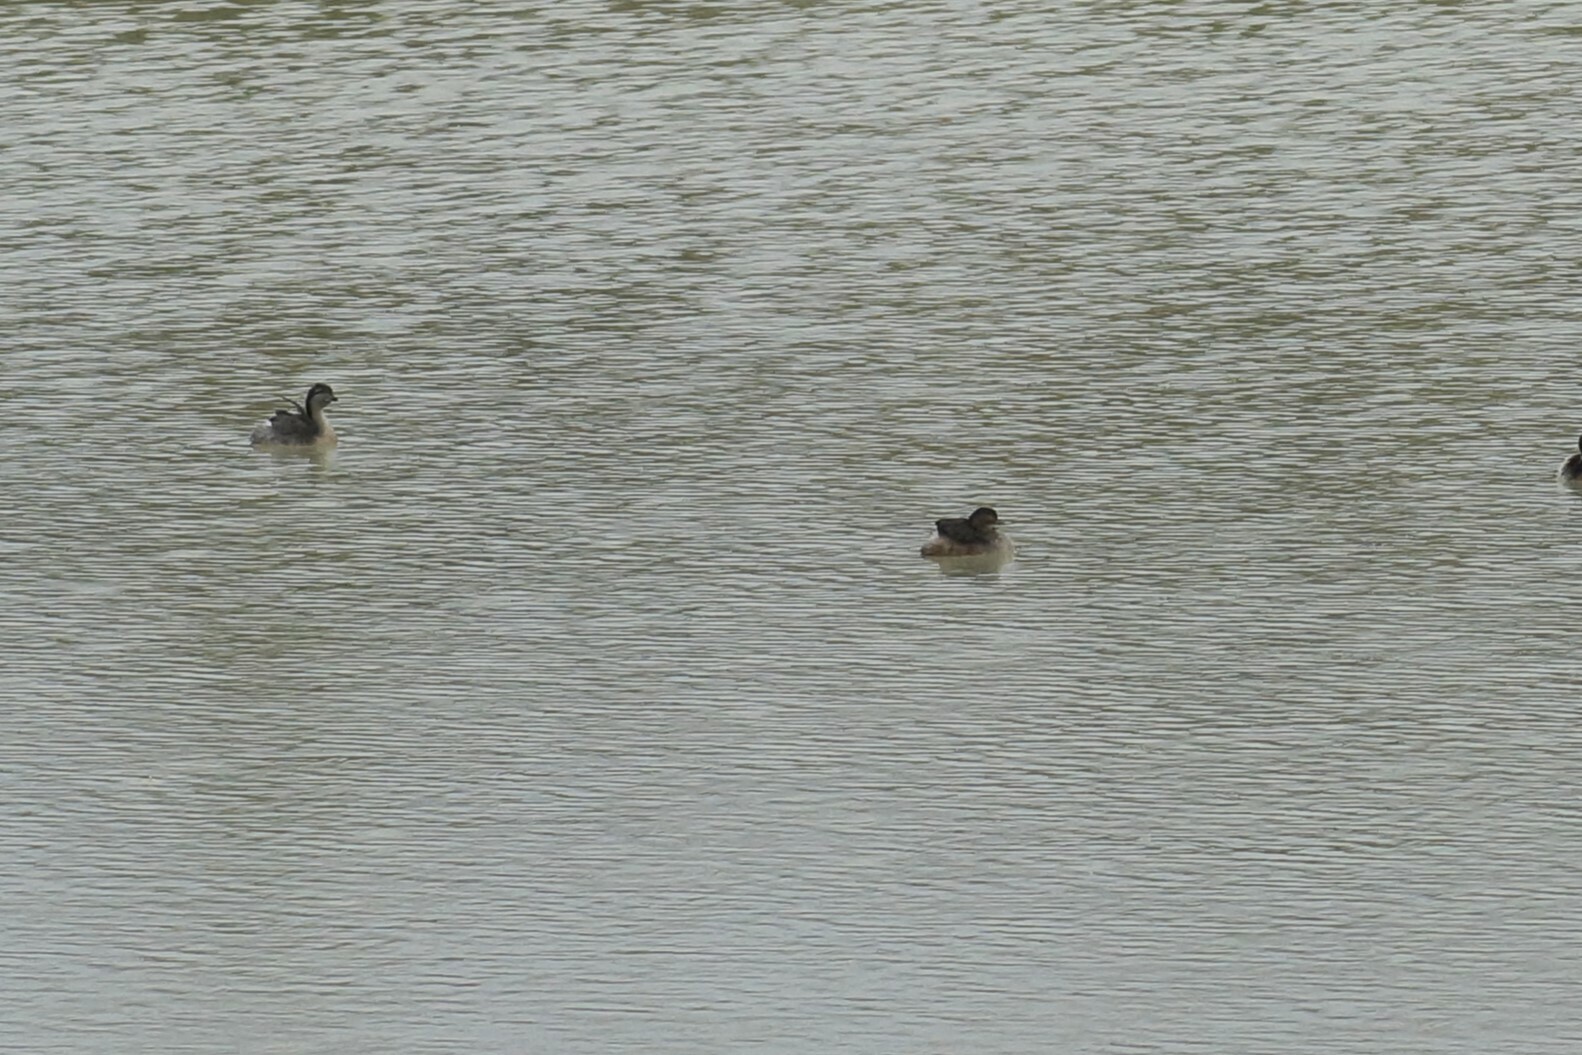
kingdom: Animalia
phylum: Chordata
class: Aves
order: Podicipediformes
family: Podicipedidae
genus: Tachybaptus
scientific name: Tachybaptus novaehollandiae
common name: Australasian grebe
